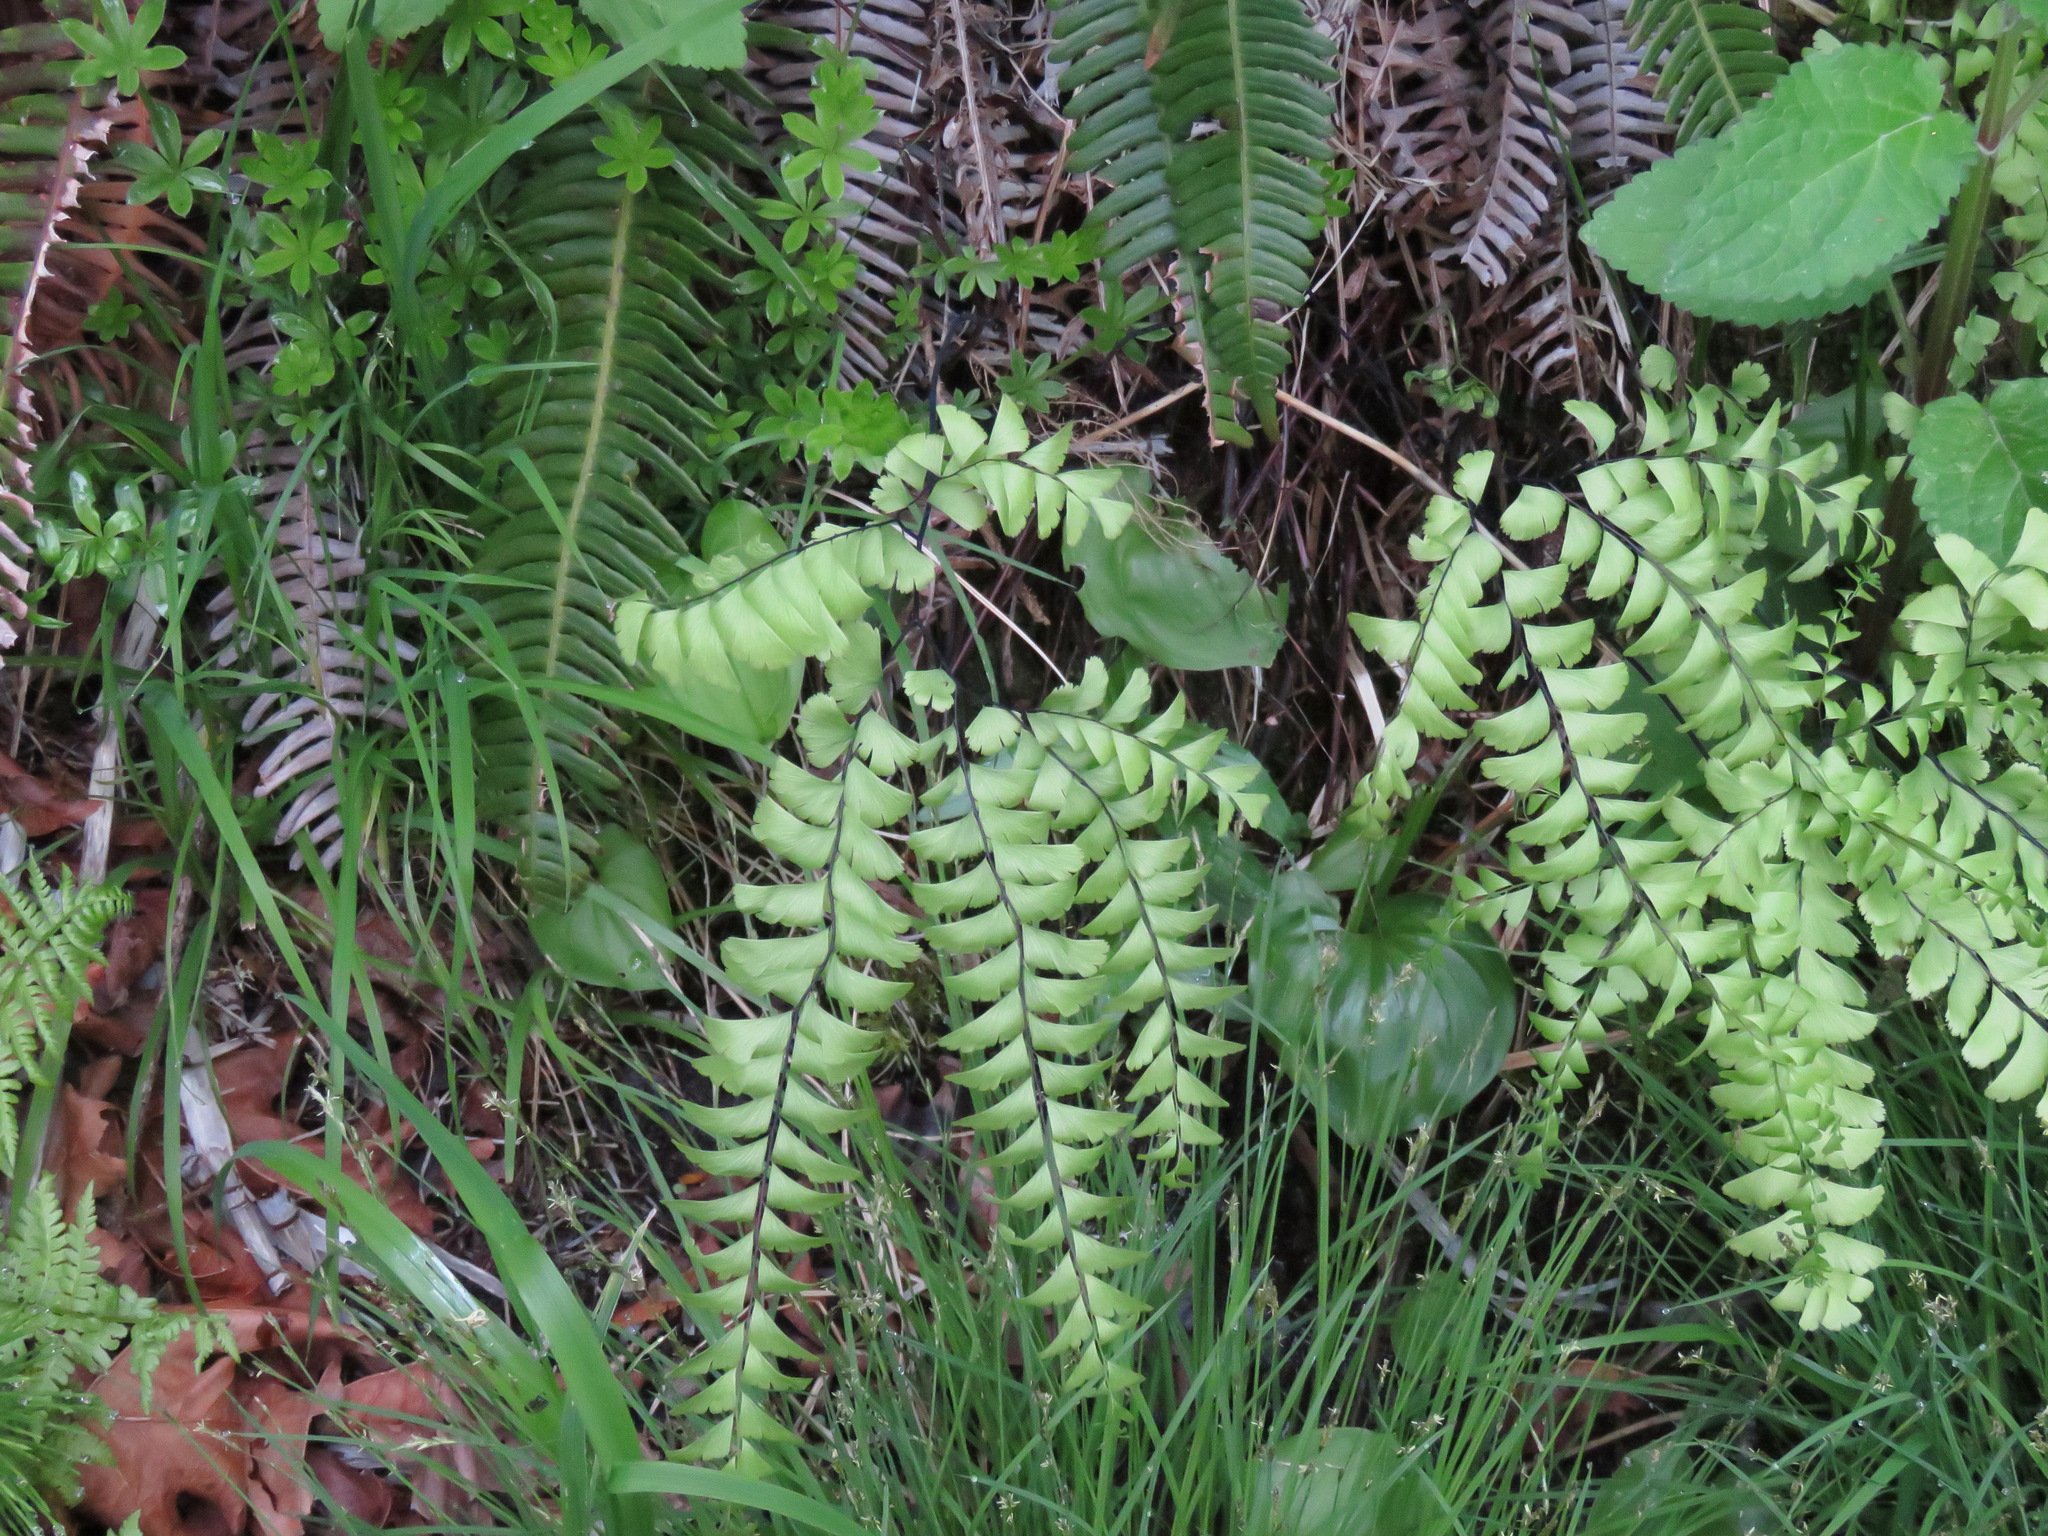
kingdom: Plantae
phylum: Tracheophyta
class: Polypodiopsida
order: Polypodiales
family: Pteridaceae
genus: Adiantum
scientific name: Adiantum aleuticum
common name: Aleutian maidenhair fern
